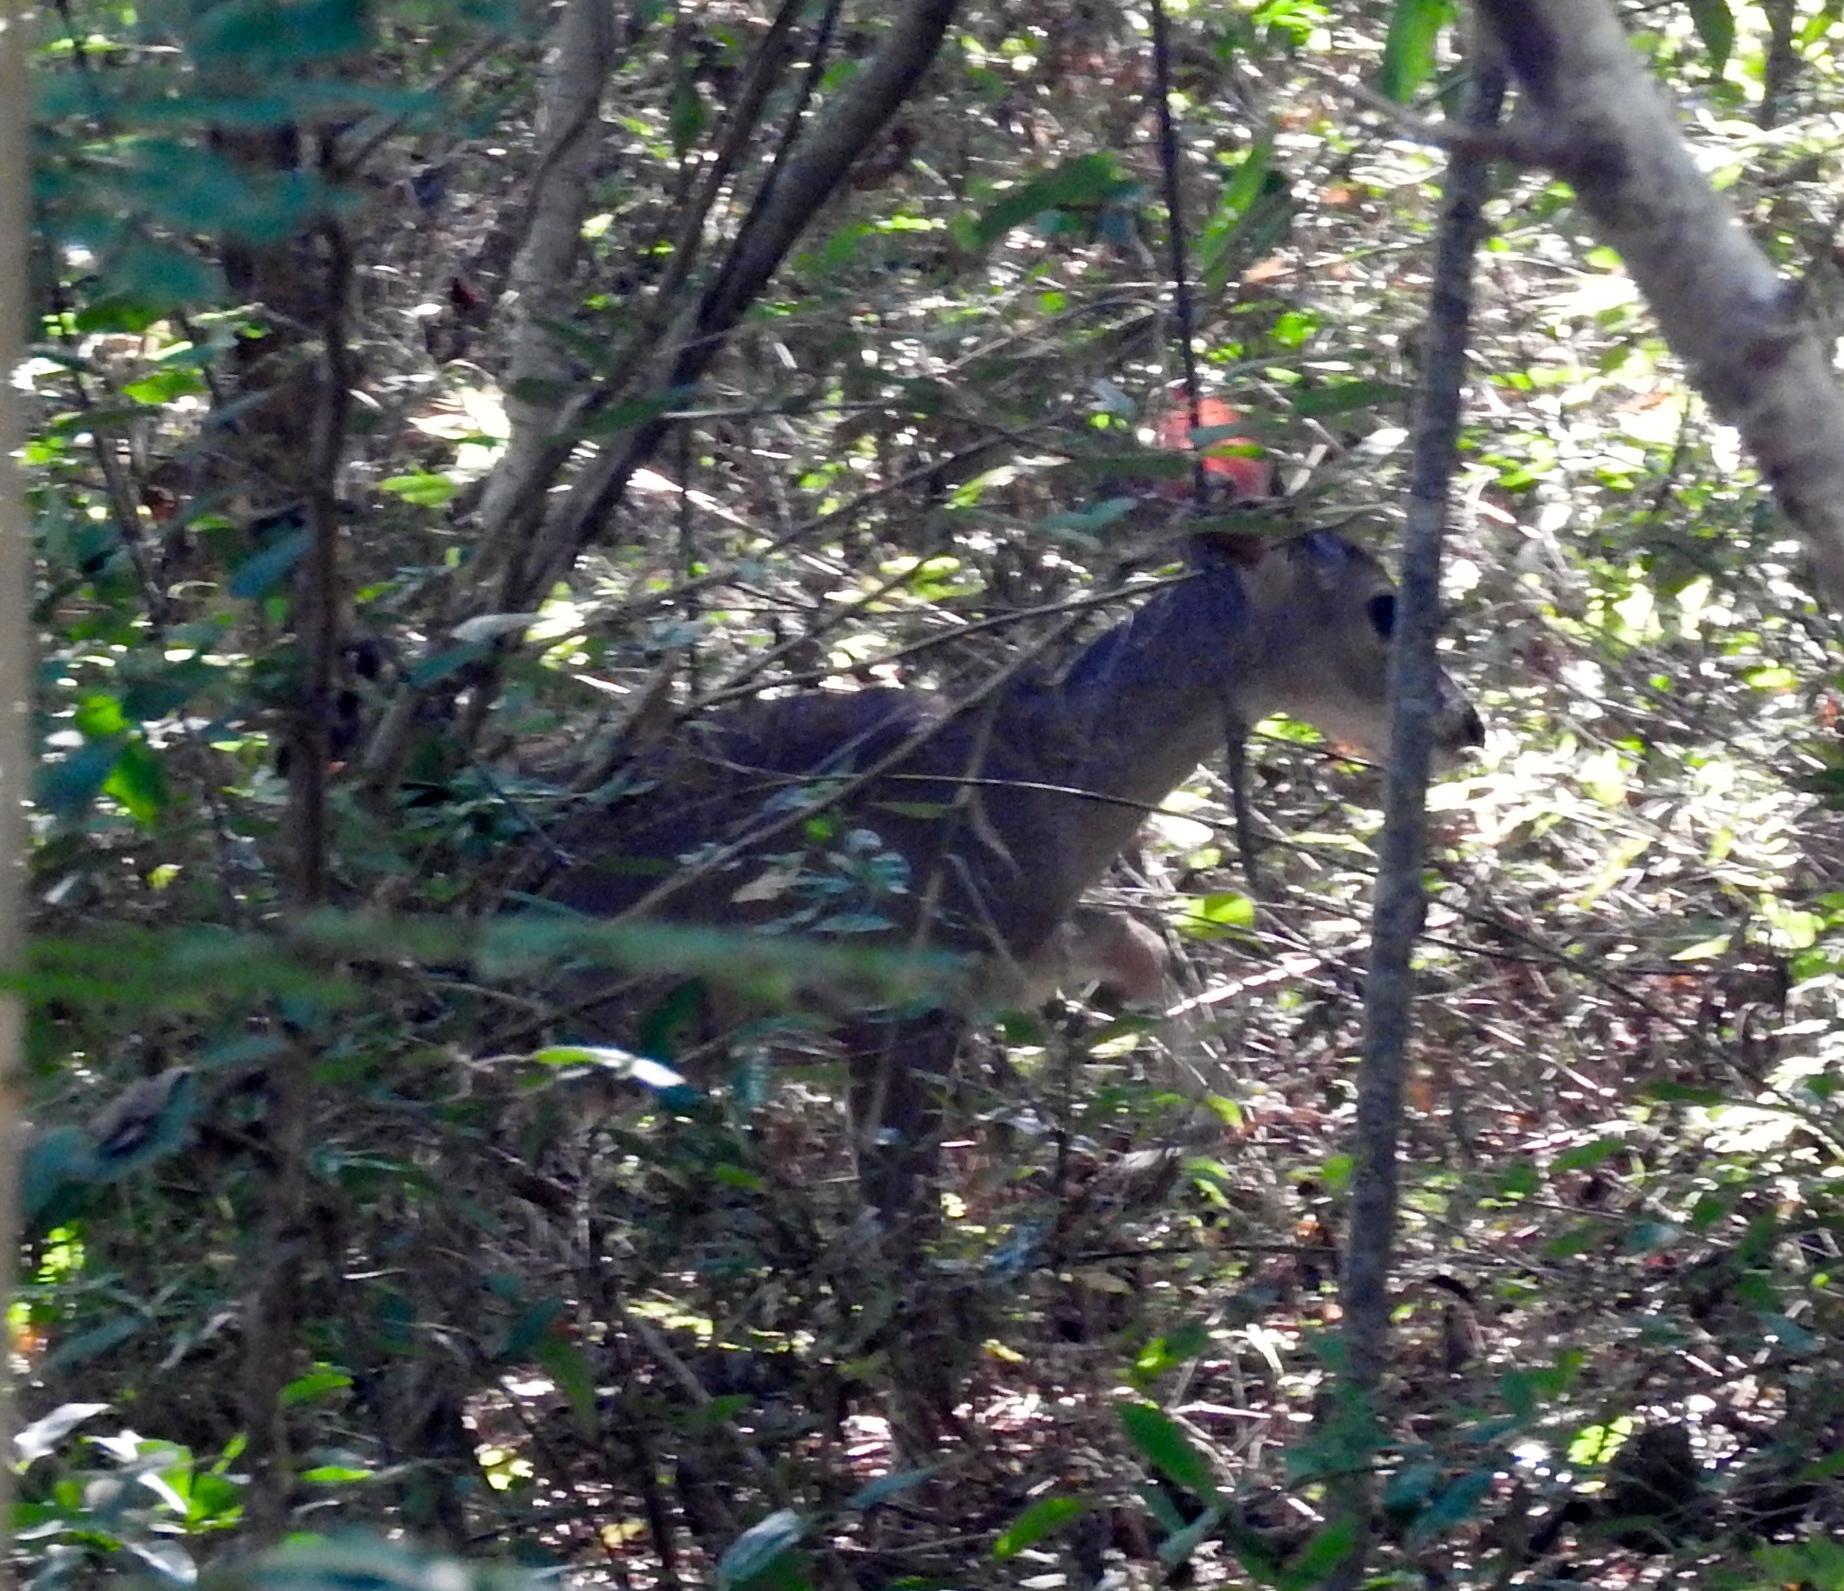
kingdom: Animalia
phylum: Chordata
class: Mammalia
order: Artiodactyla
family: Cervidae
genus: Odocoileus
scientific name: Odocoileus virginianus
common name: White-tailed deer
